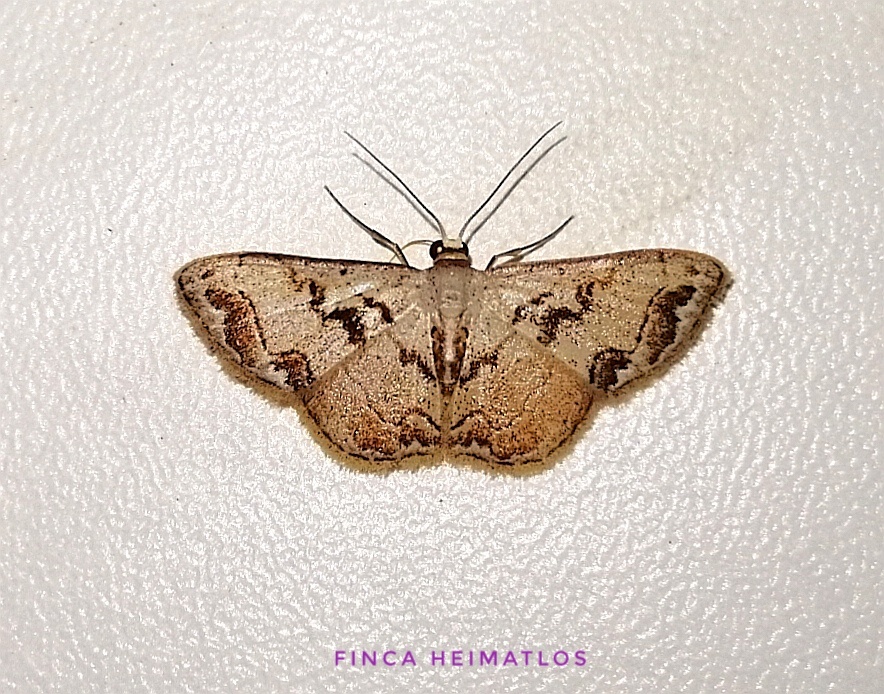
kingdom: Animalia
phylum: Arthropoda
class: Insecta
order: Lepidoptera
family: Geometridae
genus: Idaea
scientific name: Idaea subfervens
